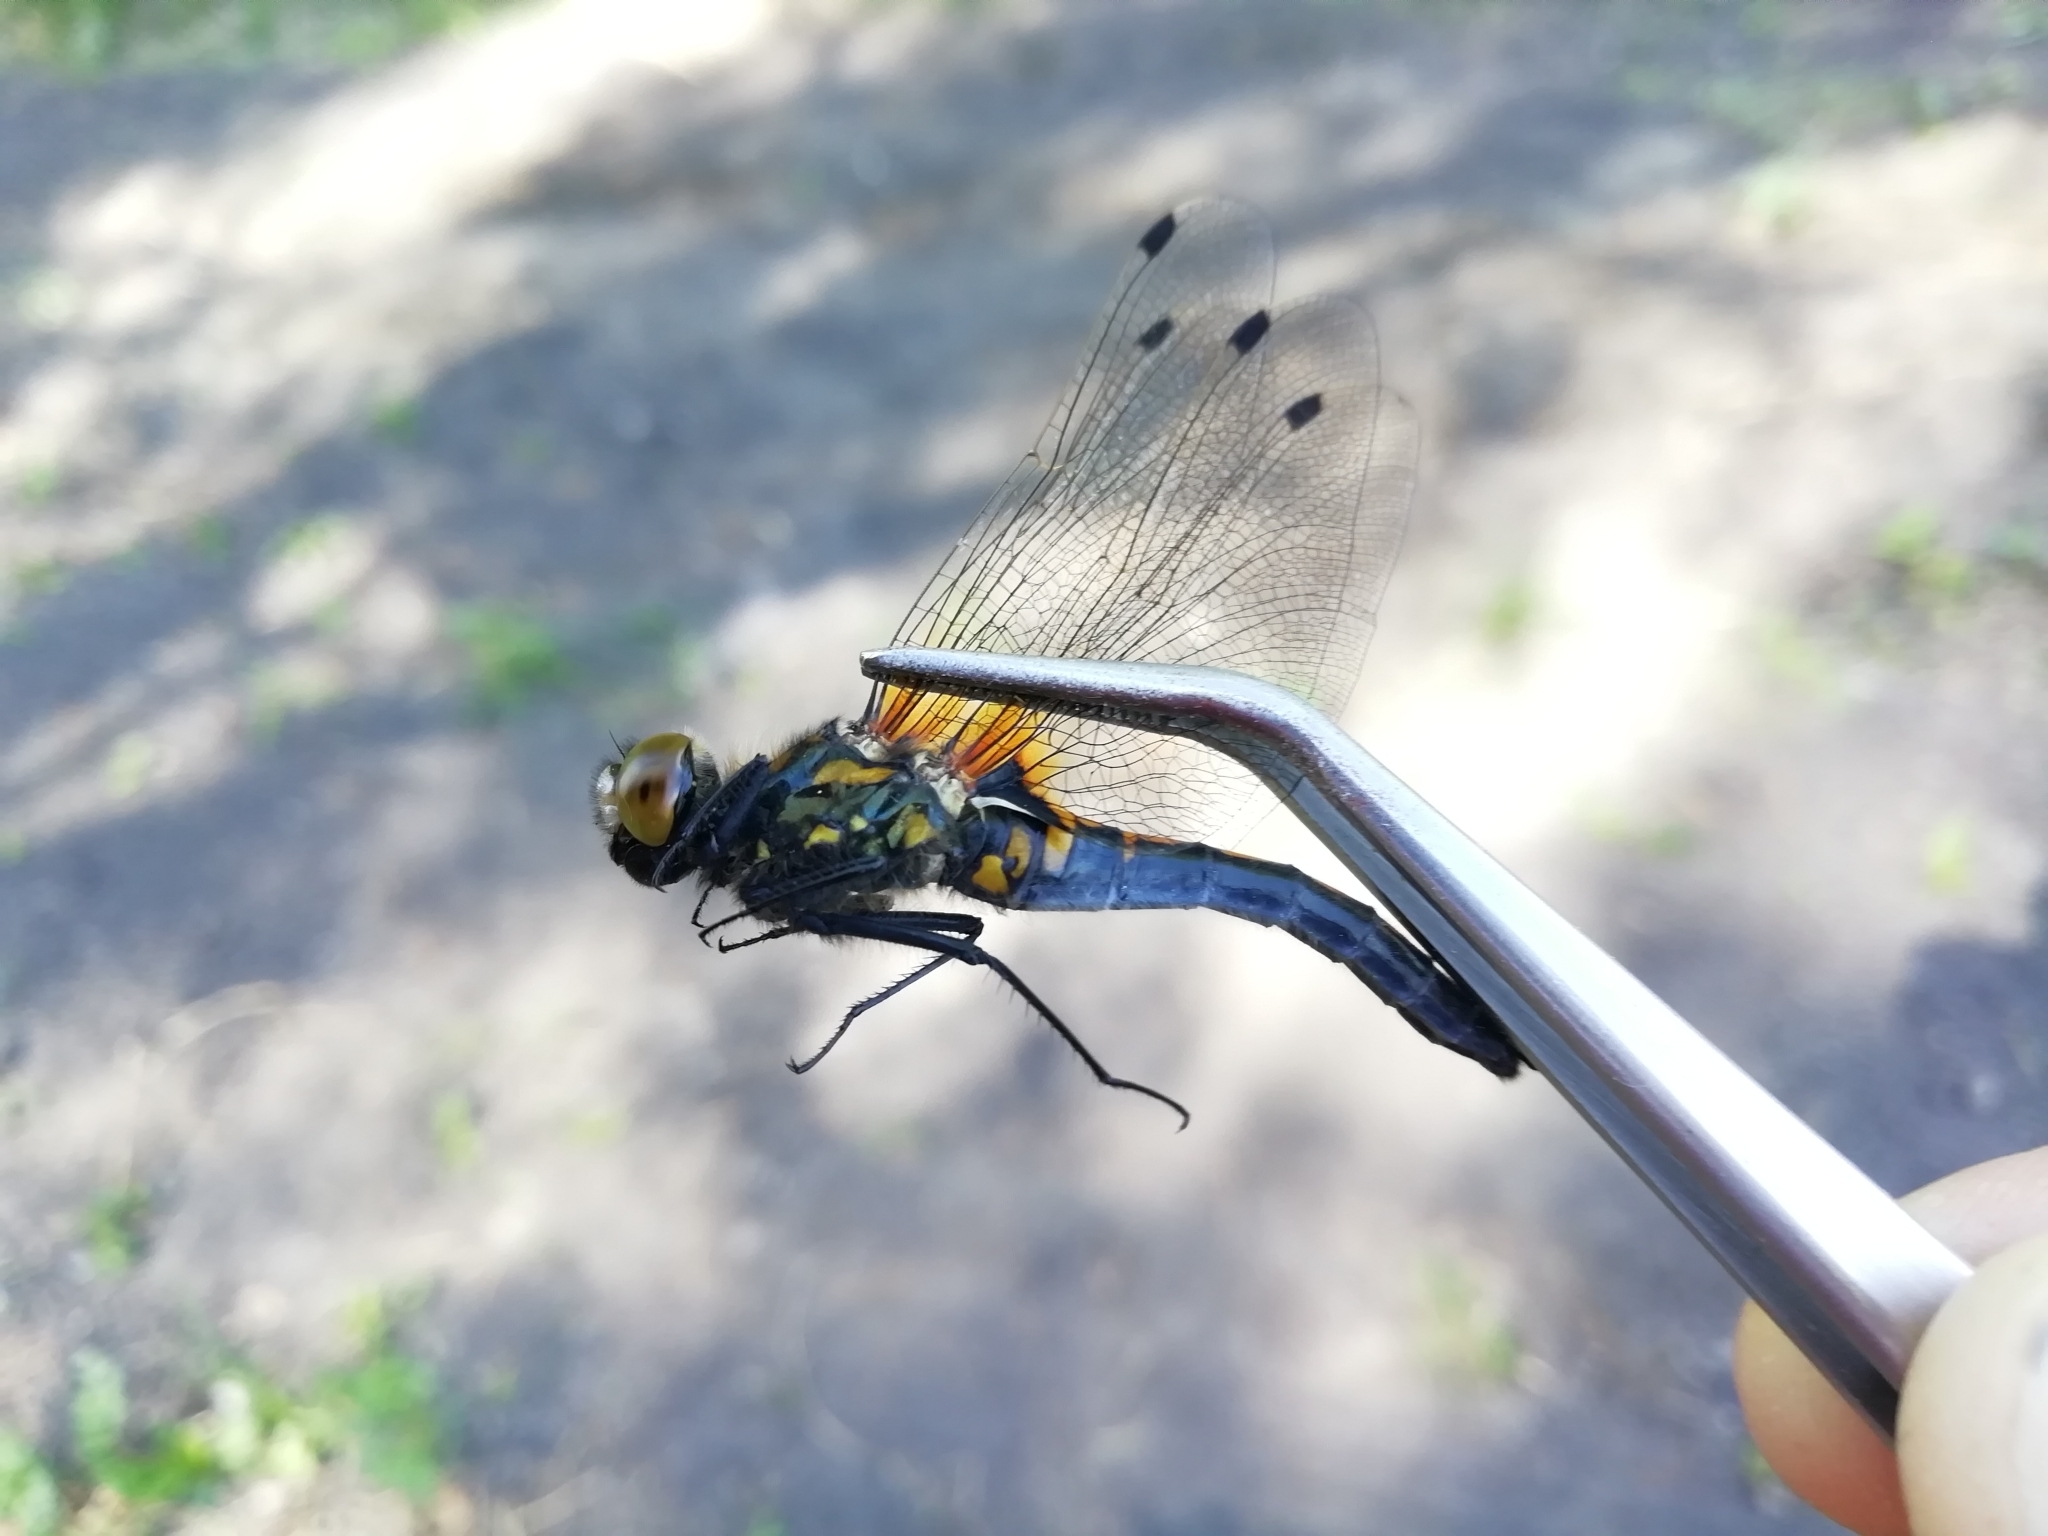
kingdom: Animalia
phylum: Arthropoda
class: Insecta
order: Odonata
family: Libellulidae
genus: Leucorrhinia
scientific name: Leucorrhinia rubicunda
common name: Ruby whiteface
